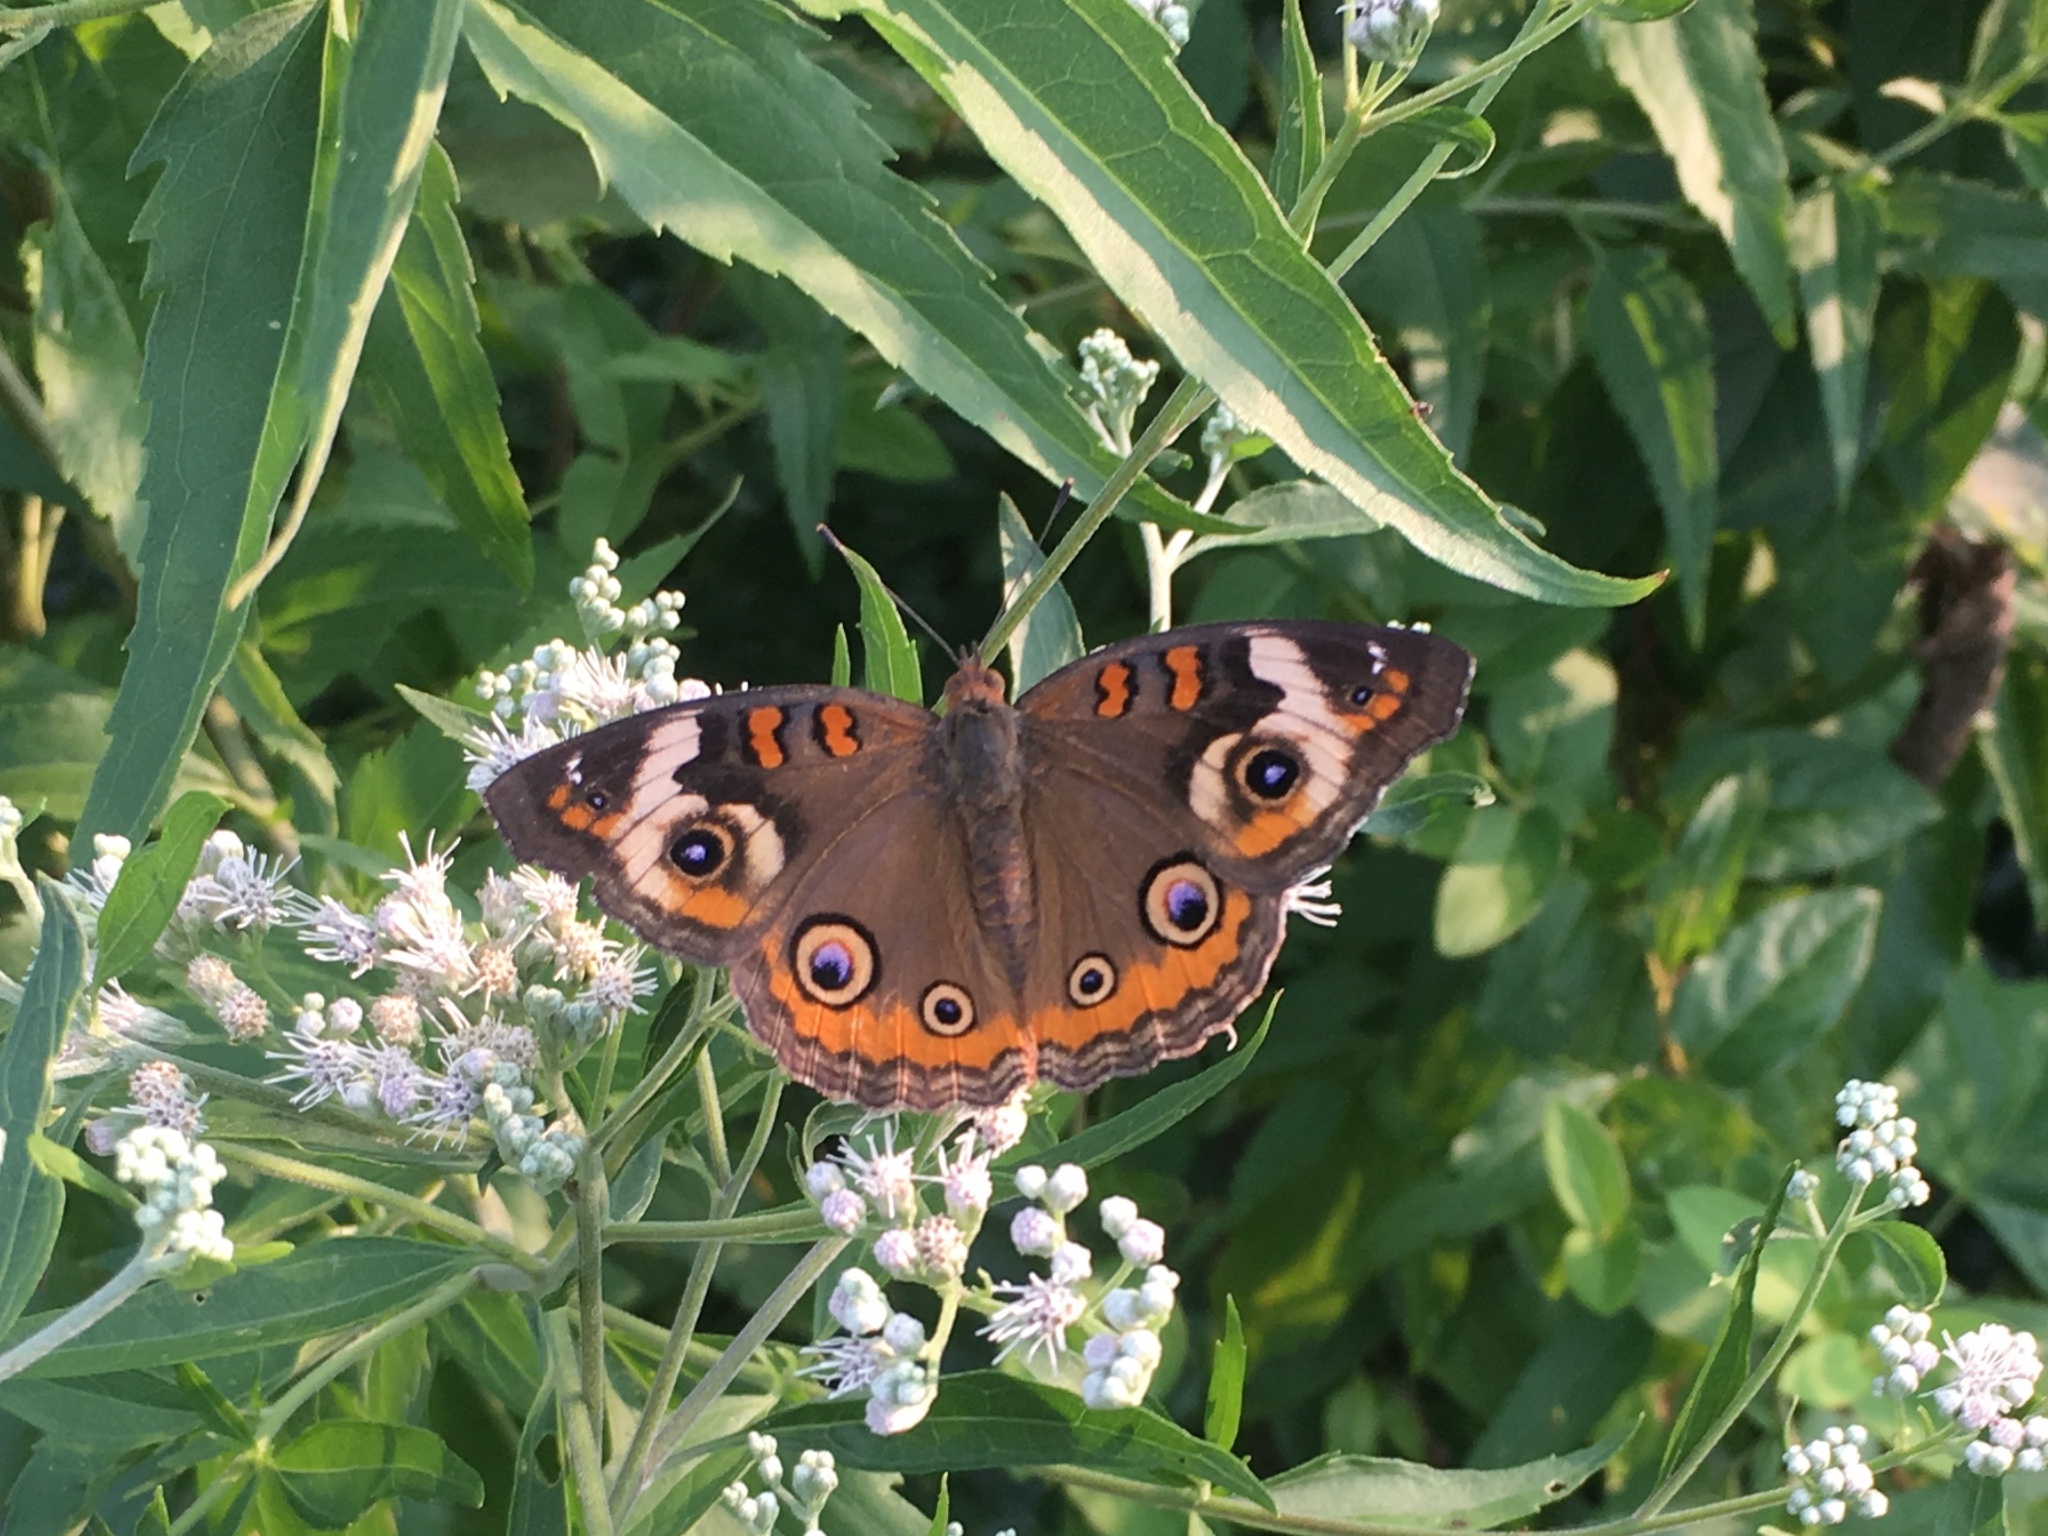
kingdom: Animalia
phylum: Arthropoda
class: Insecta
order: Lepidoptera
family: Nymphalidae
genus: Junonia
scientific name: Junonia coenia
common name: Common buckeye
